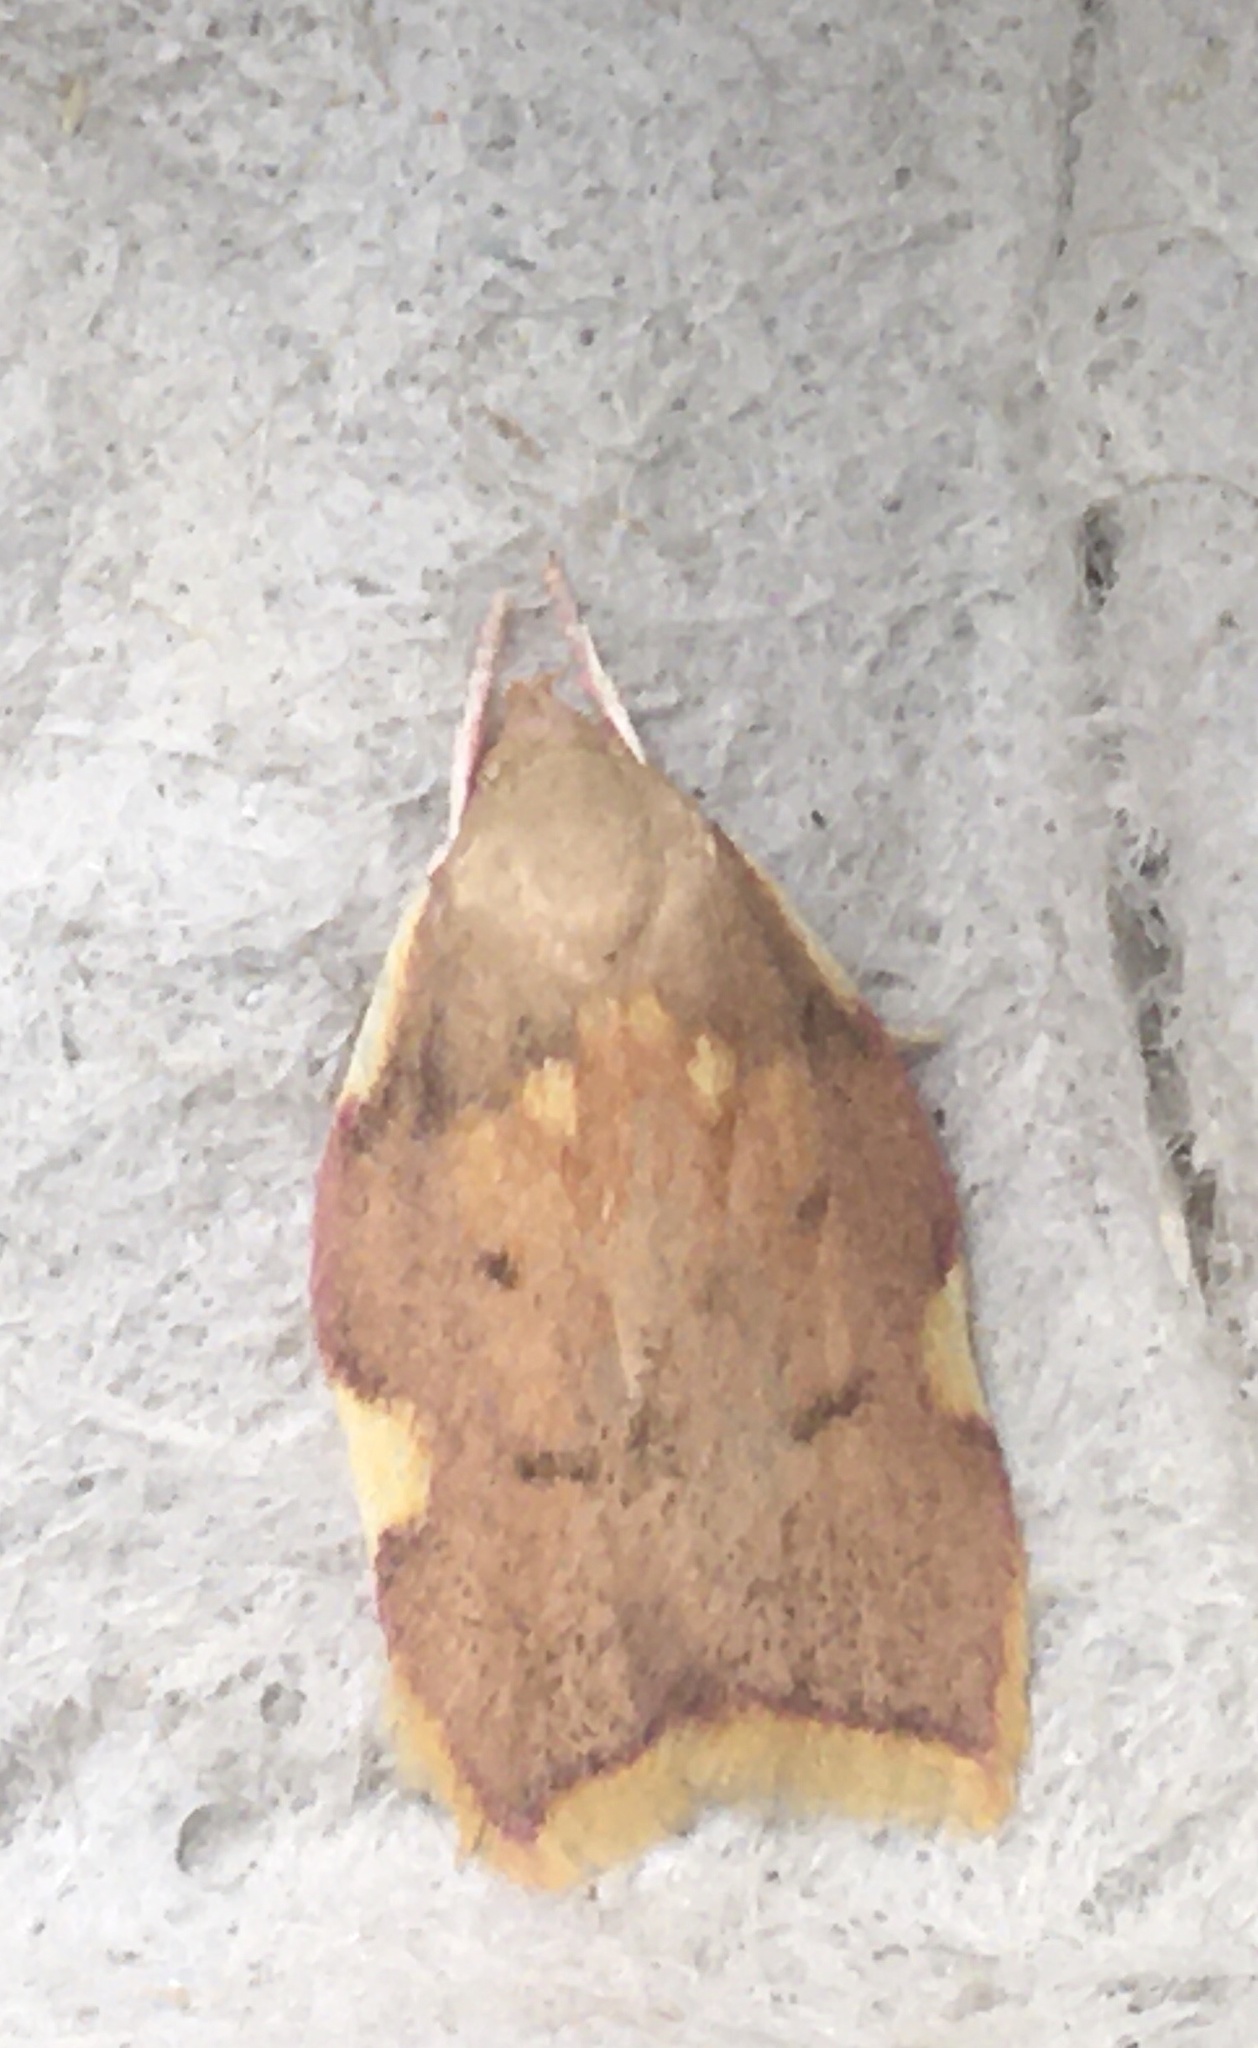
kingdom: Animalia
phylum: Arthropoda
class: Insecta
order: Lepidoptera
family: Peleopodidae
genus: Carcina
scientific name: Carcina quercana
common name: Moth
